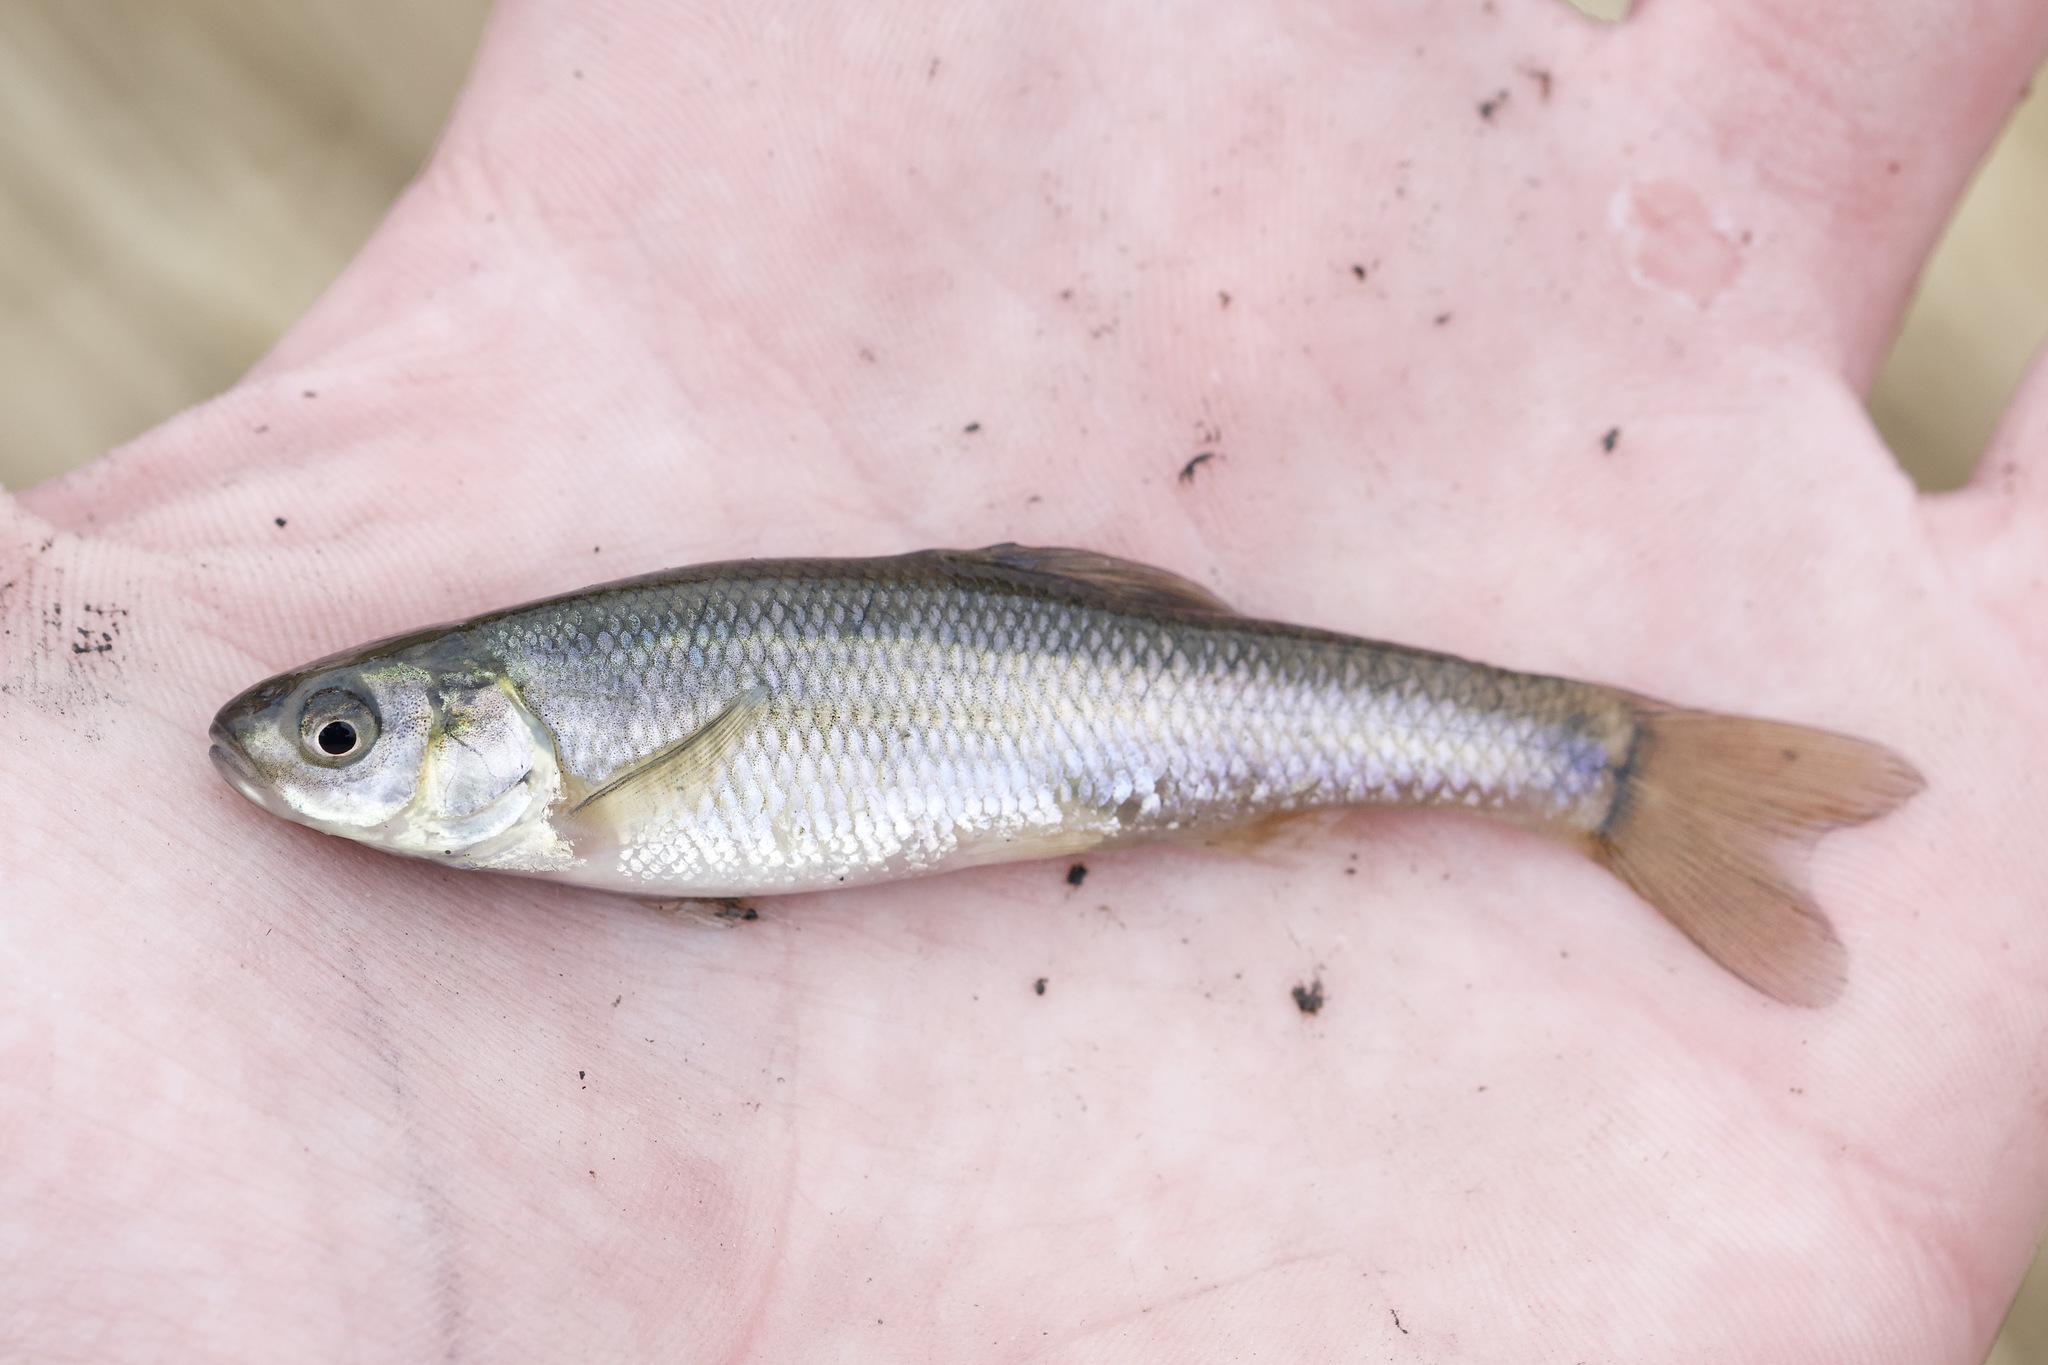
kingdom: Animalia
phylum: Chordata
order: Cypriniformes
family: Cyprinidae
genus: Pimephales
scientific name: Pimephales promelas
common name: Fathead minnow
